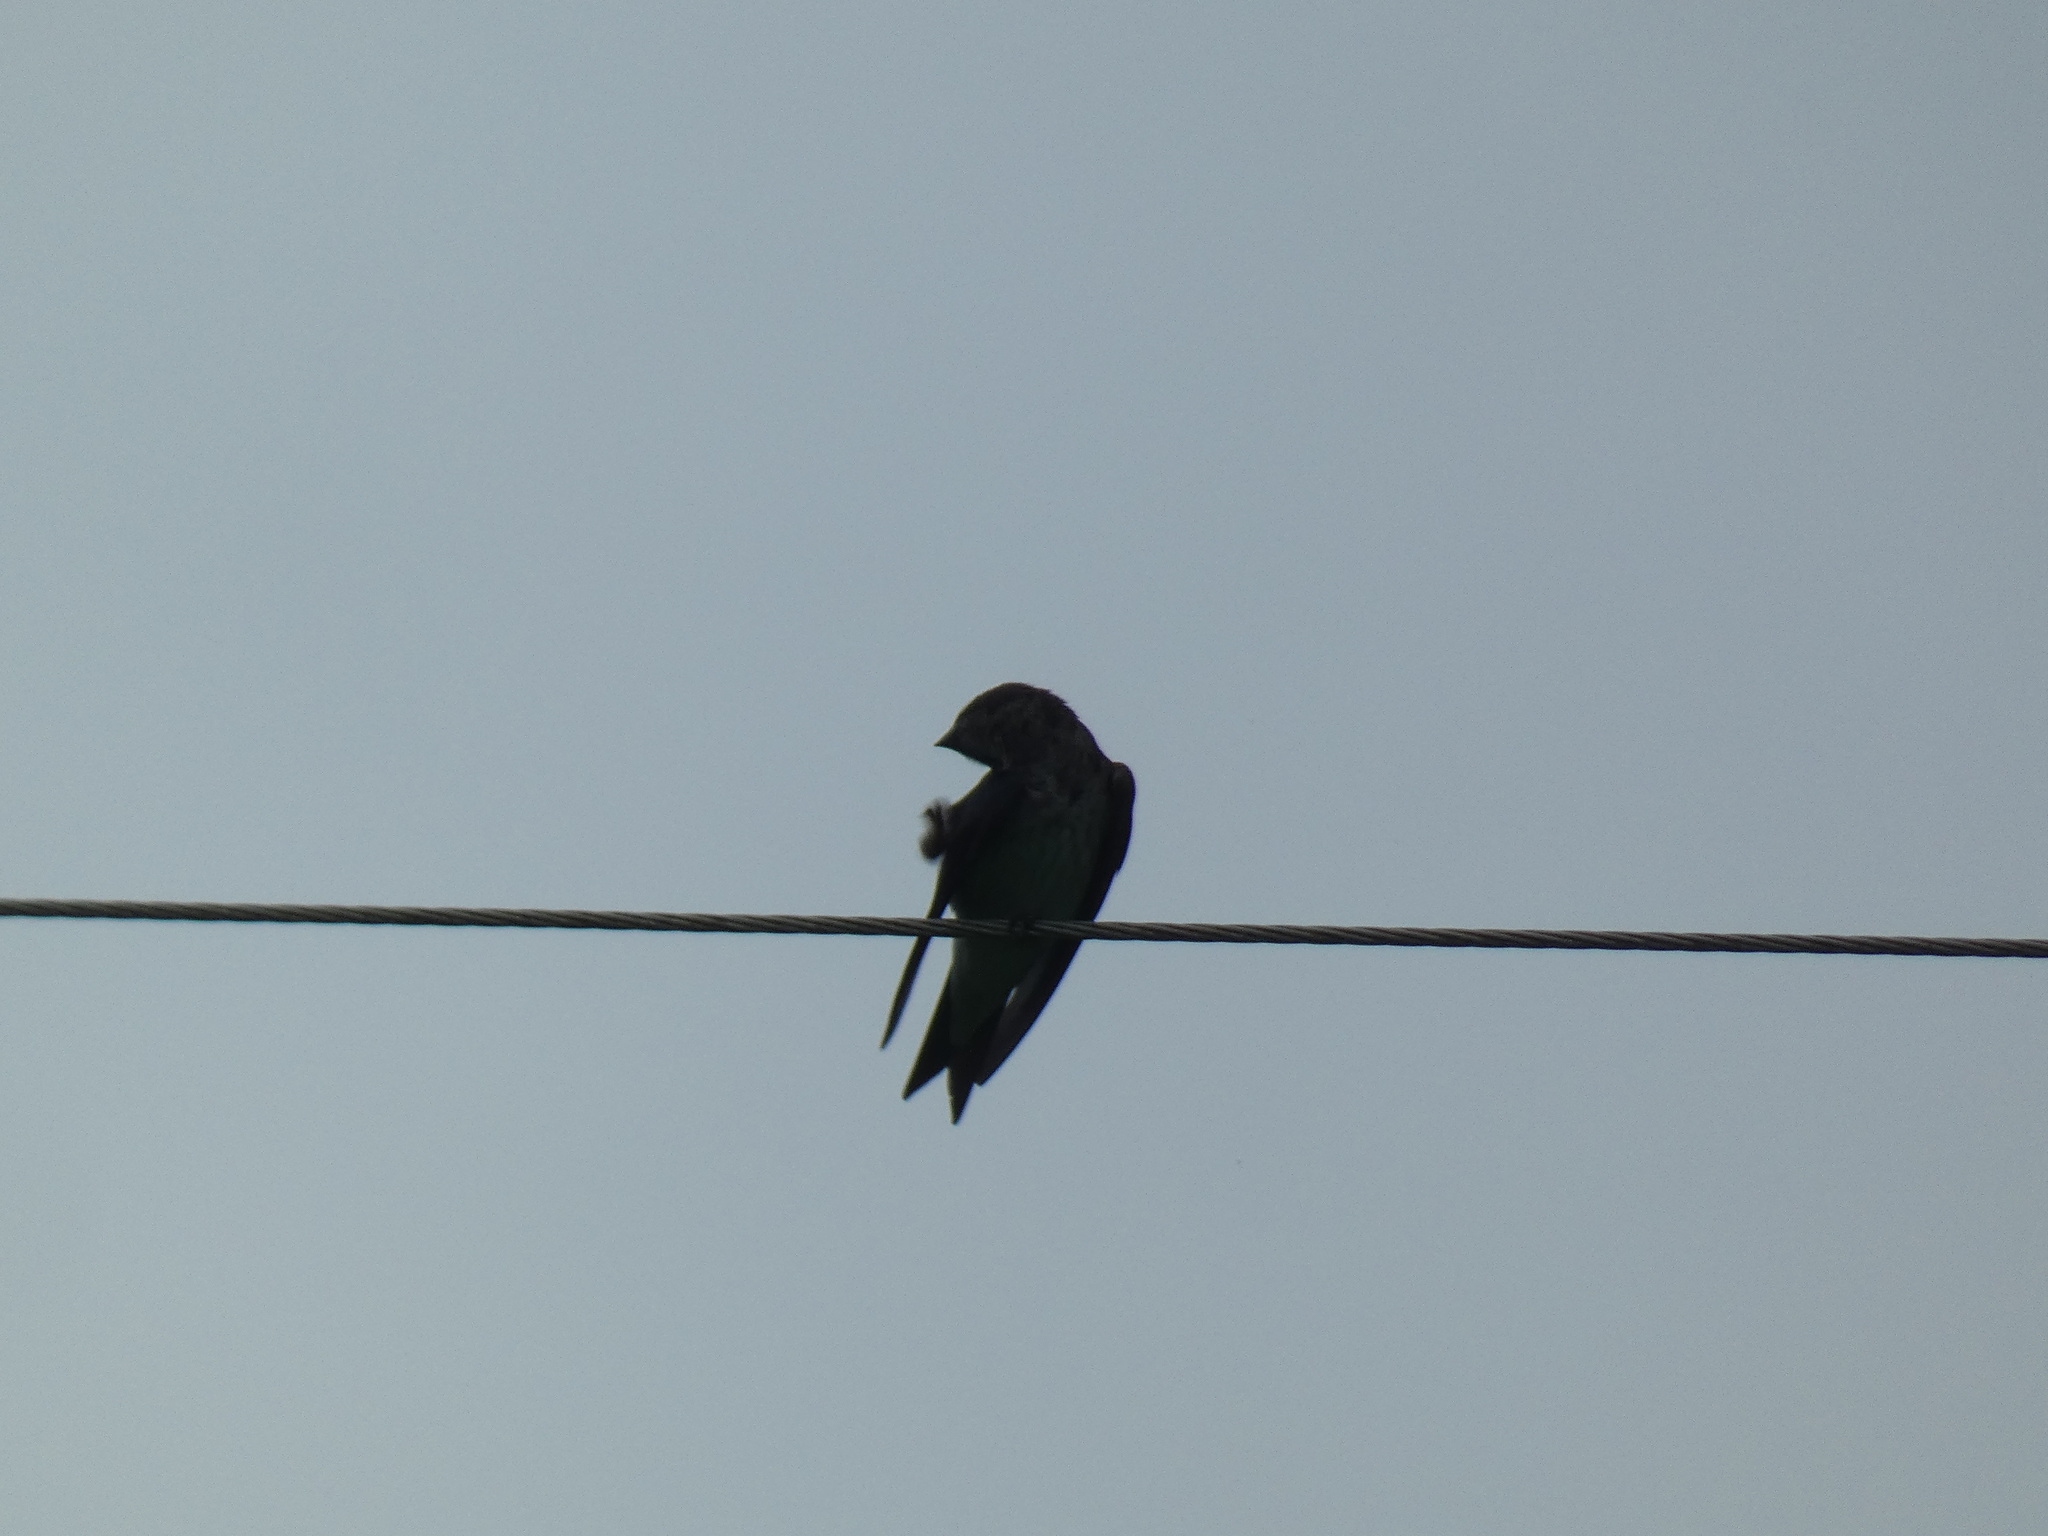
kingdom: Animalia
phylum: Chordata
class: Aves
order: Passeriformes
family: Hirundinidae
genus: Progne
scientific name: Progne chalybea
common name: Grey-breasted martin
